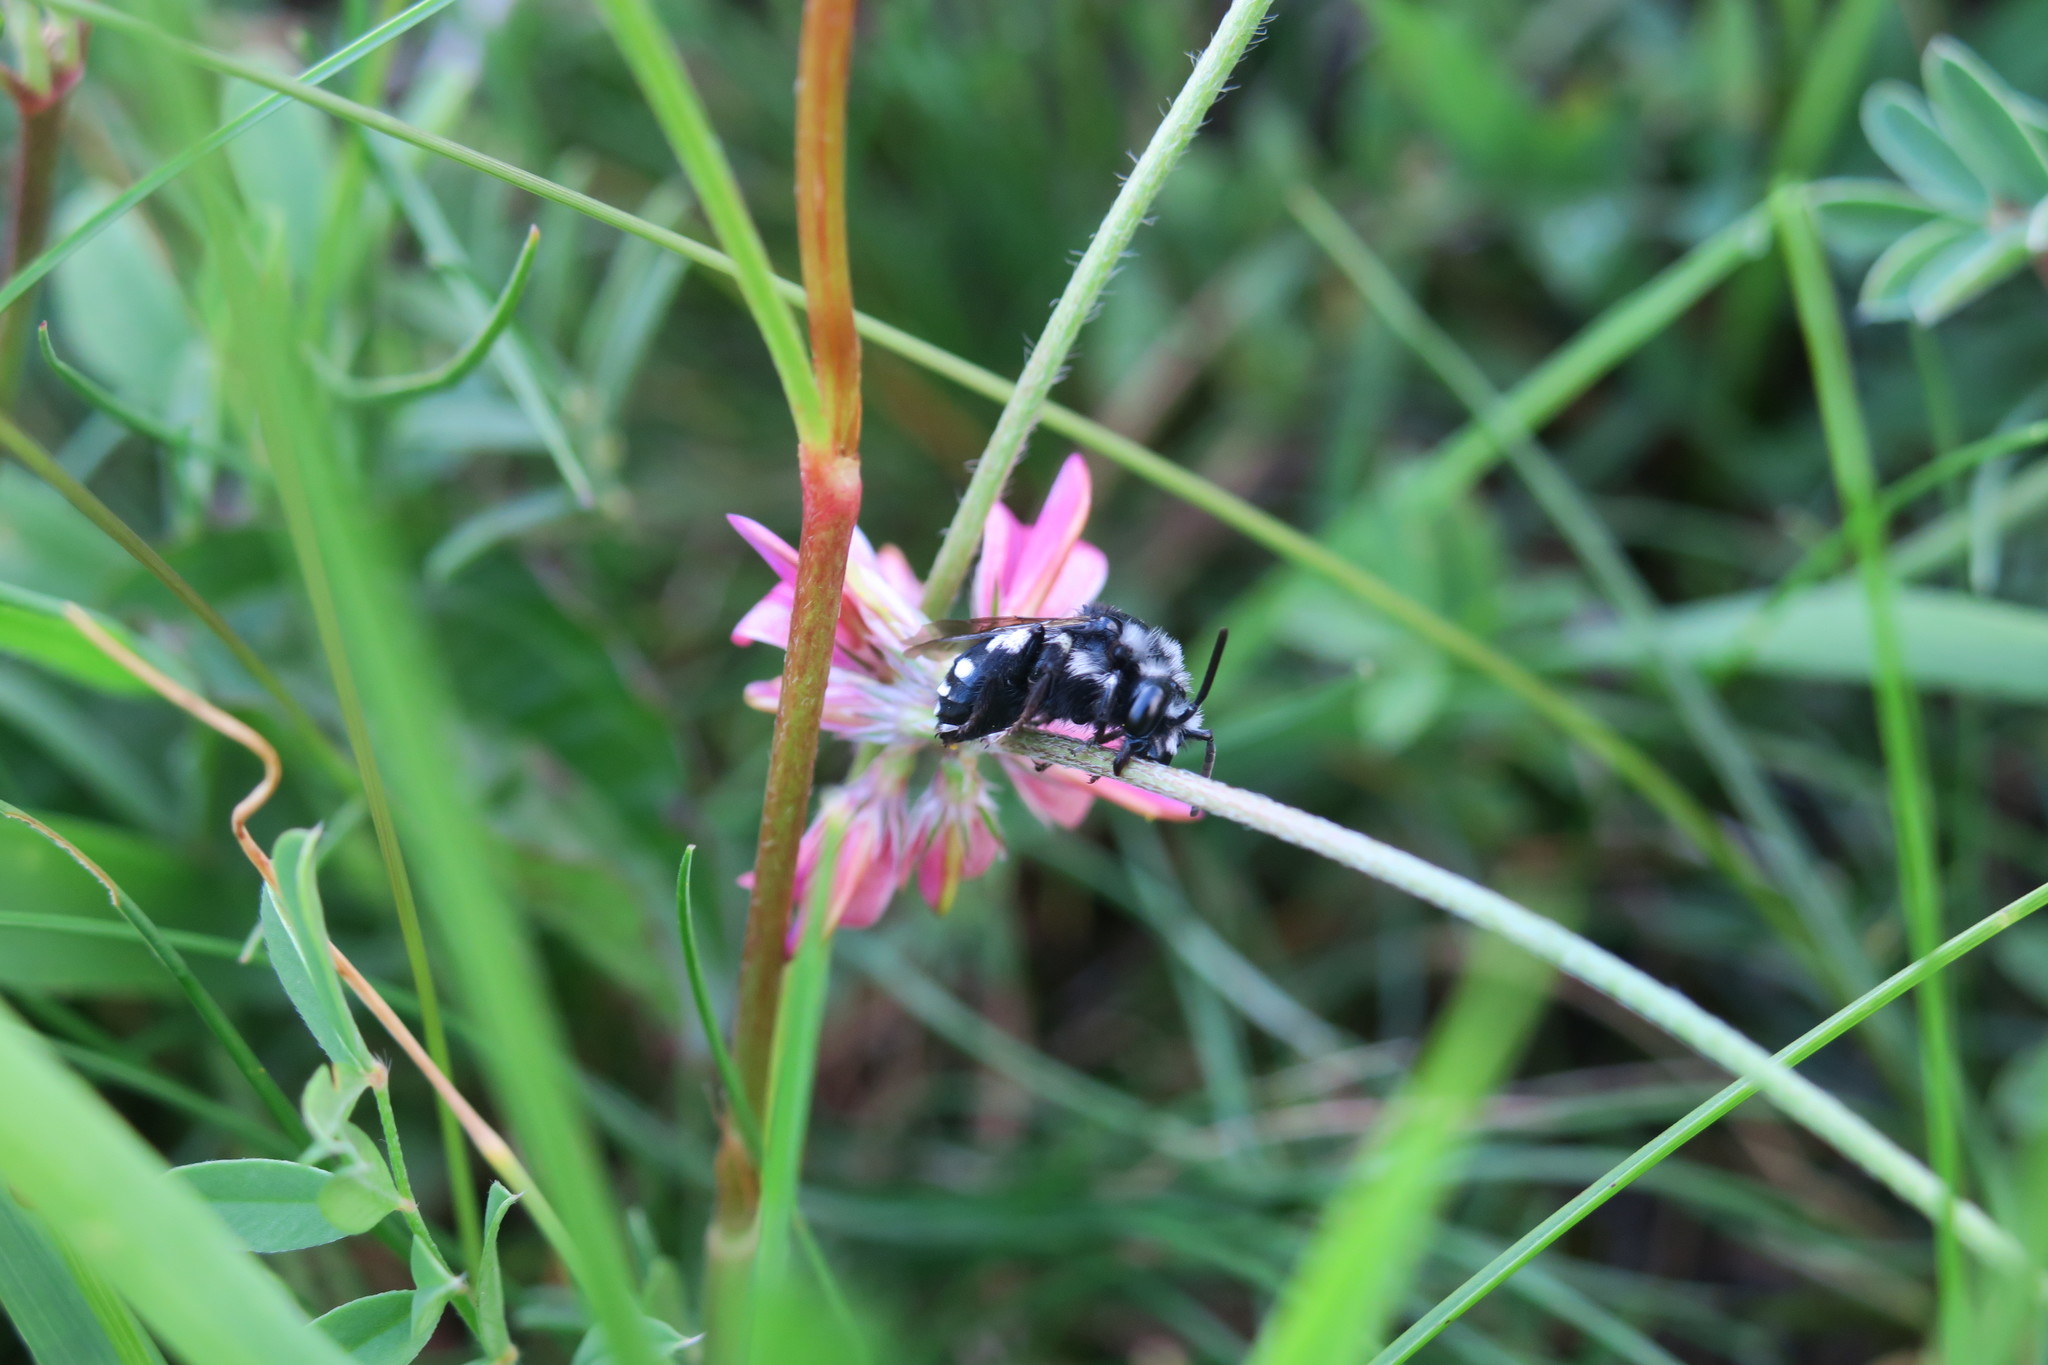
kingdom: Animalia
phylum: Arthropoda
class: Insecta
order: Hymenoptera
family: Apidae
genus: Melecta
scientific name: Melecta luctuosa
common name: Square-spotted mourning bee
